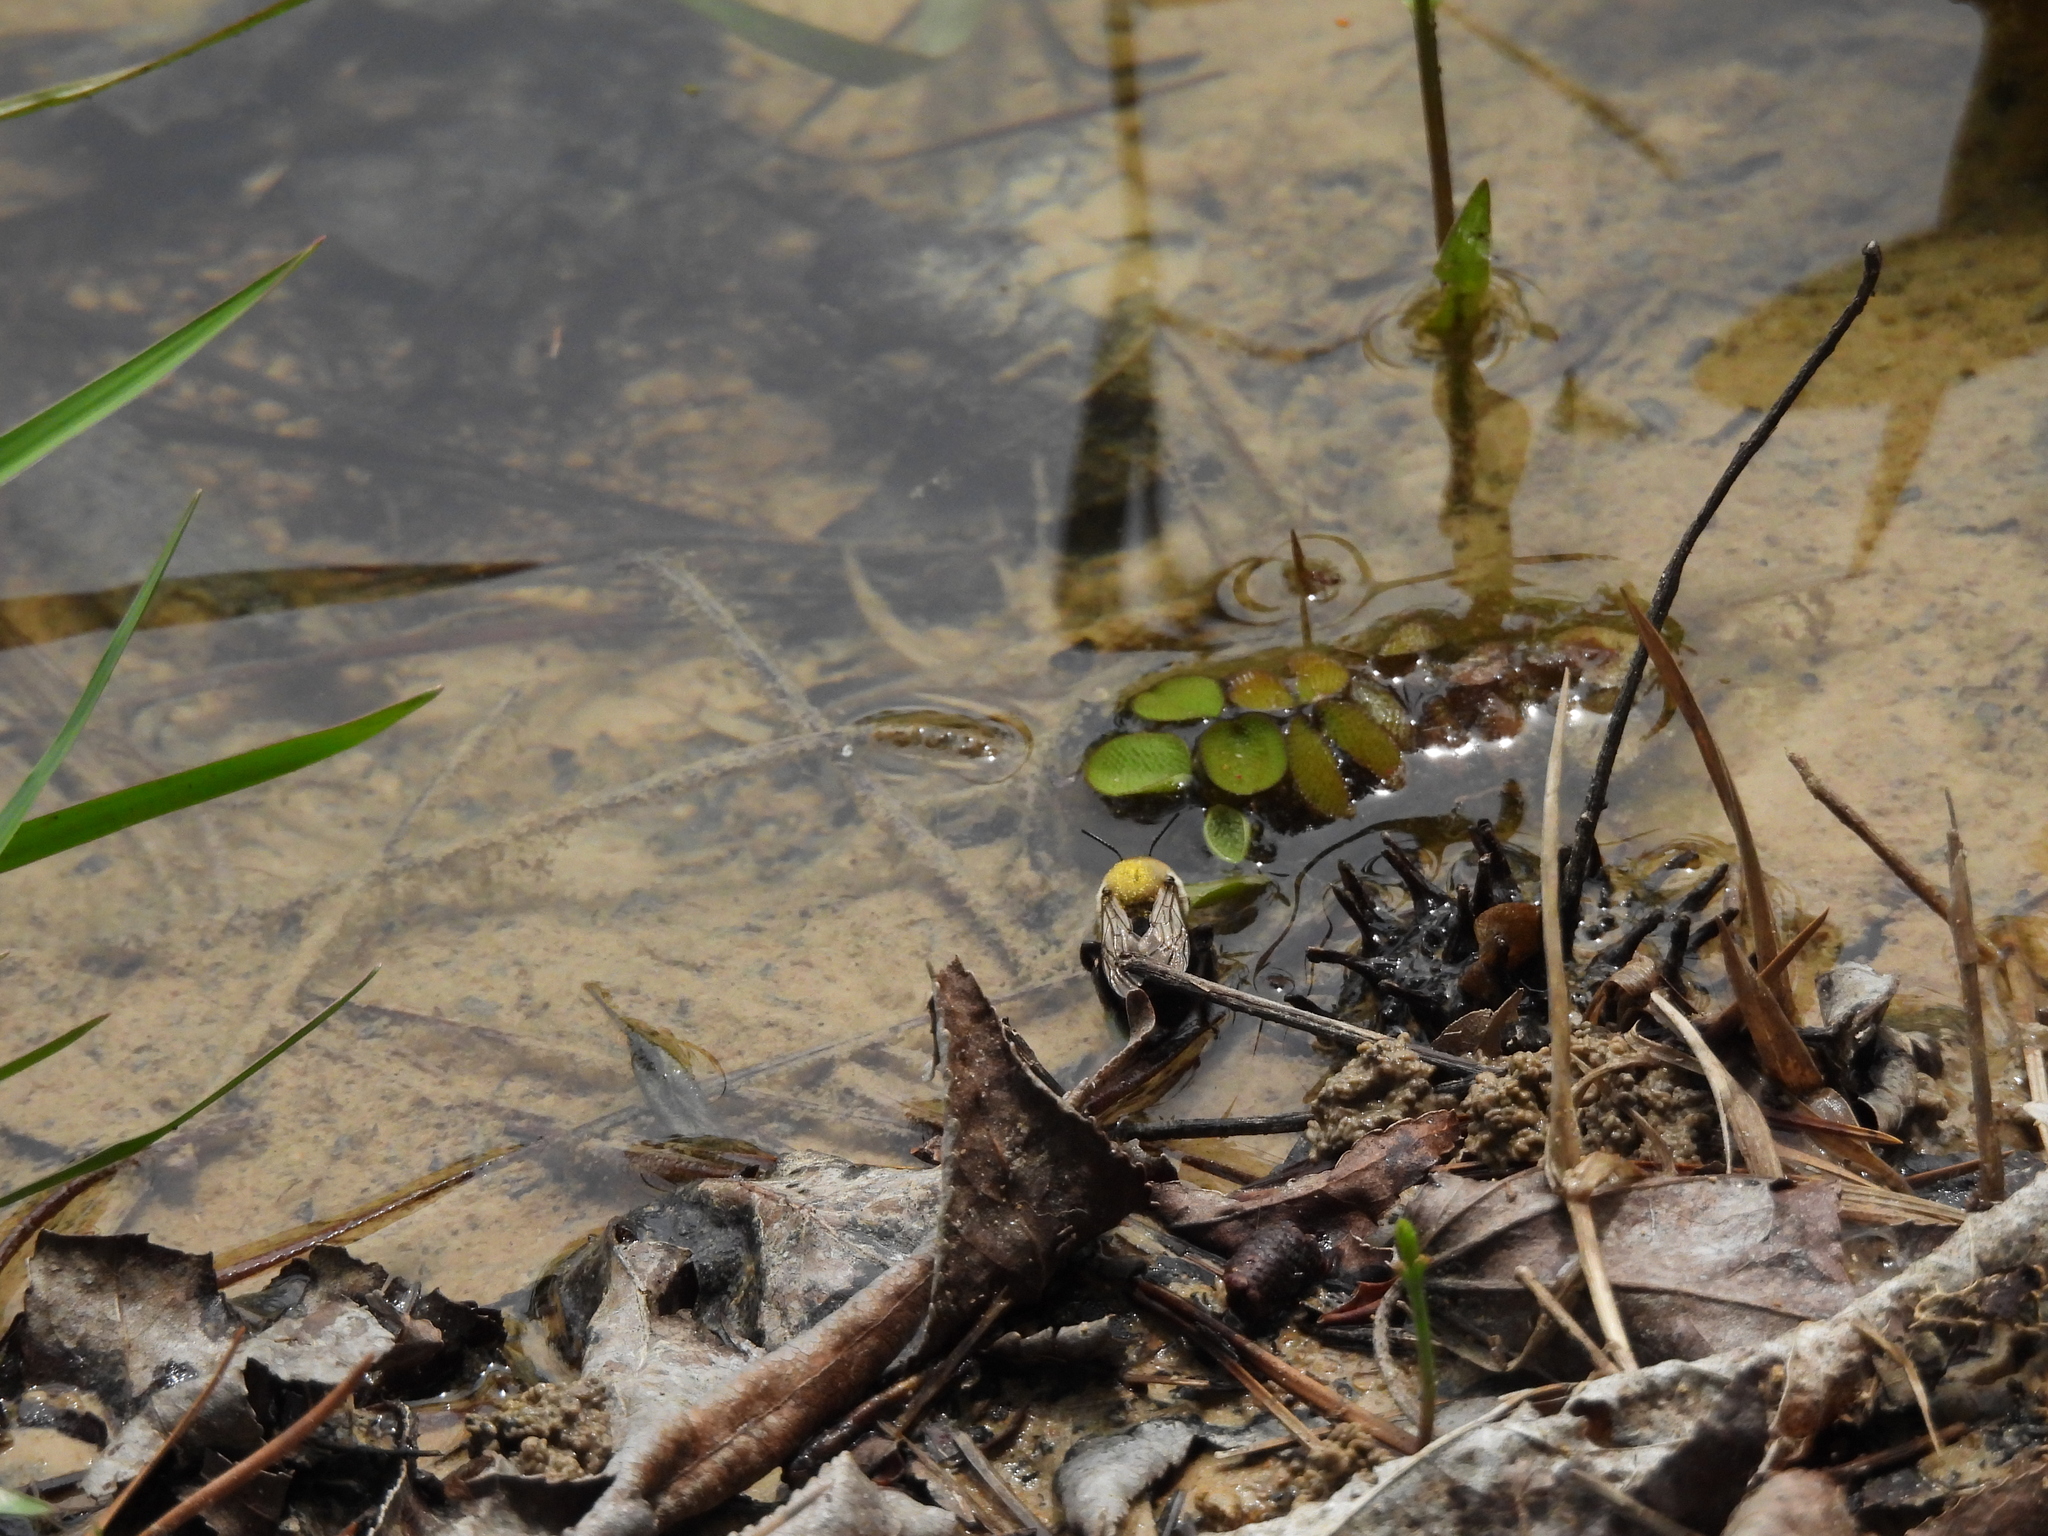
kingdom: Animalia
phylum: Arthropoda
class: Insecta
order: Hymenoptera
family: Apidae
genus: Anthophora
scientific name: Anthophora abrupta
